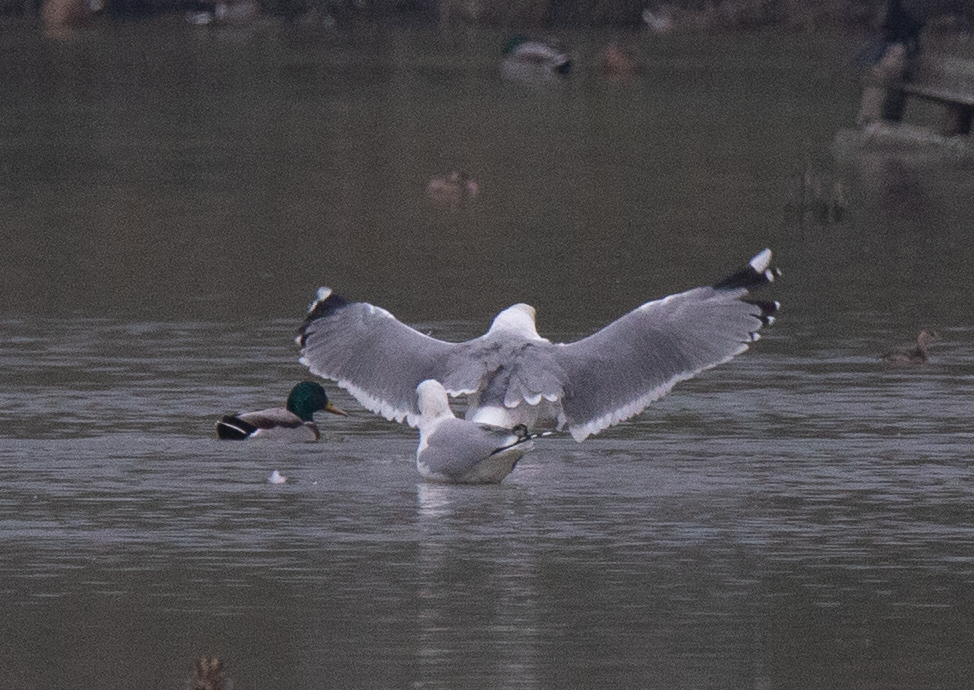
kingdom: Animalia
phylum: Chordata
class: Aves
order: Charadriiformes
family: Laridae
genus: Larus
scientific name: Larus michahellis
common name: Yellow-legged gull
